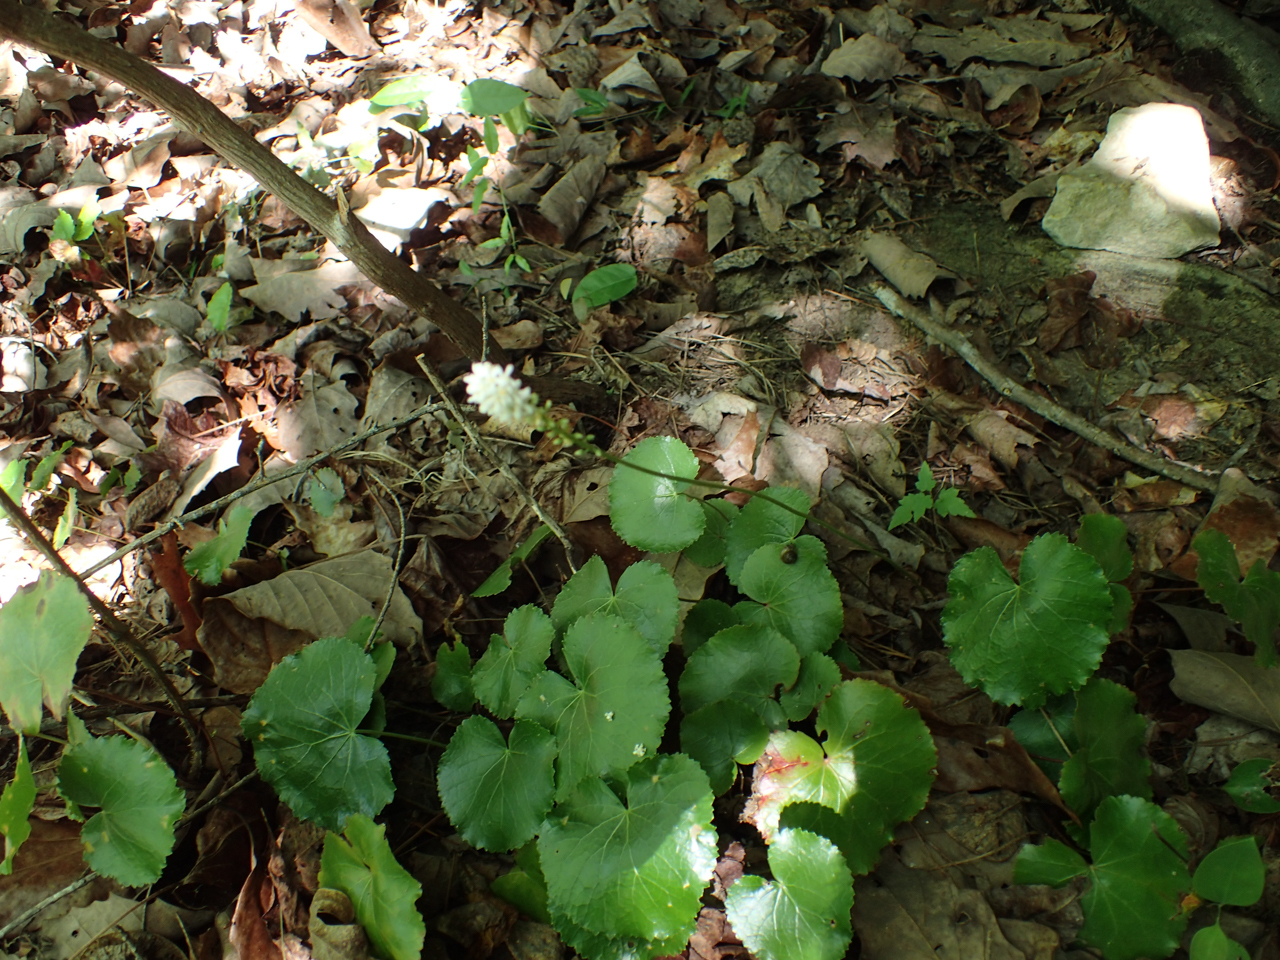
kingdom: Plantae
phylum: Tracheophyta
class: Magnoliopsida
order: Ericales
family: Diapensiaceae
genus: Galax
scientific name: Galax urceolata
